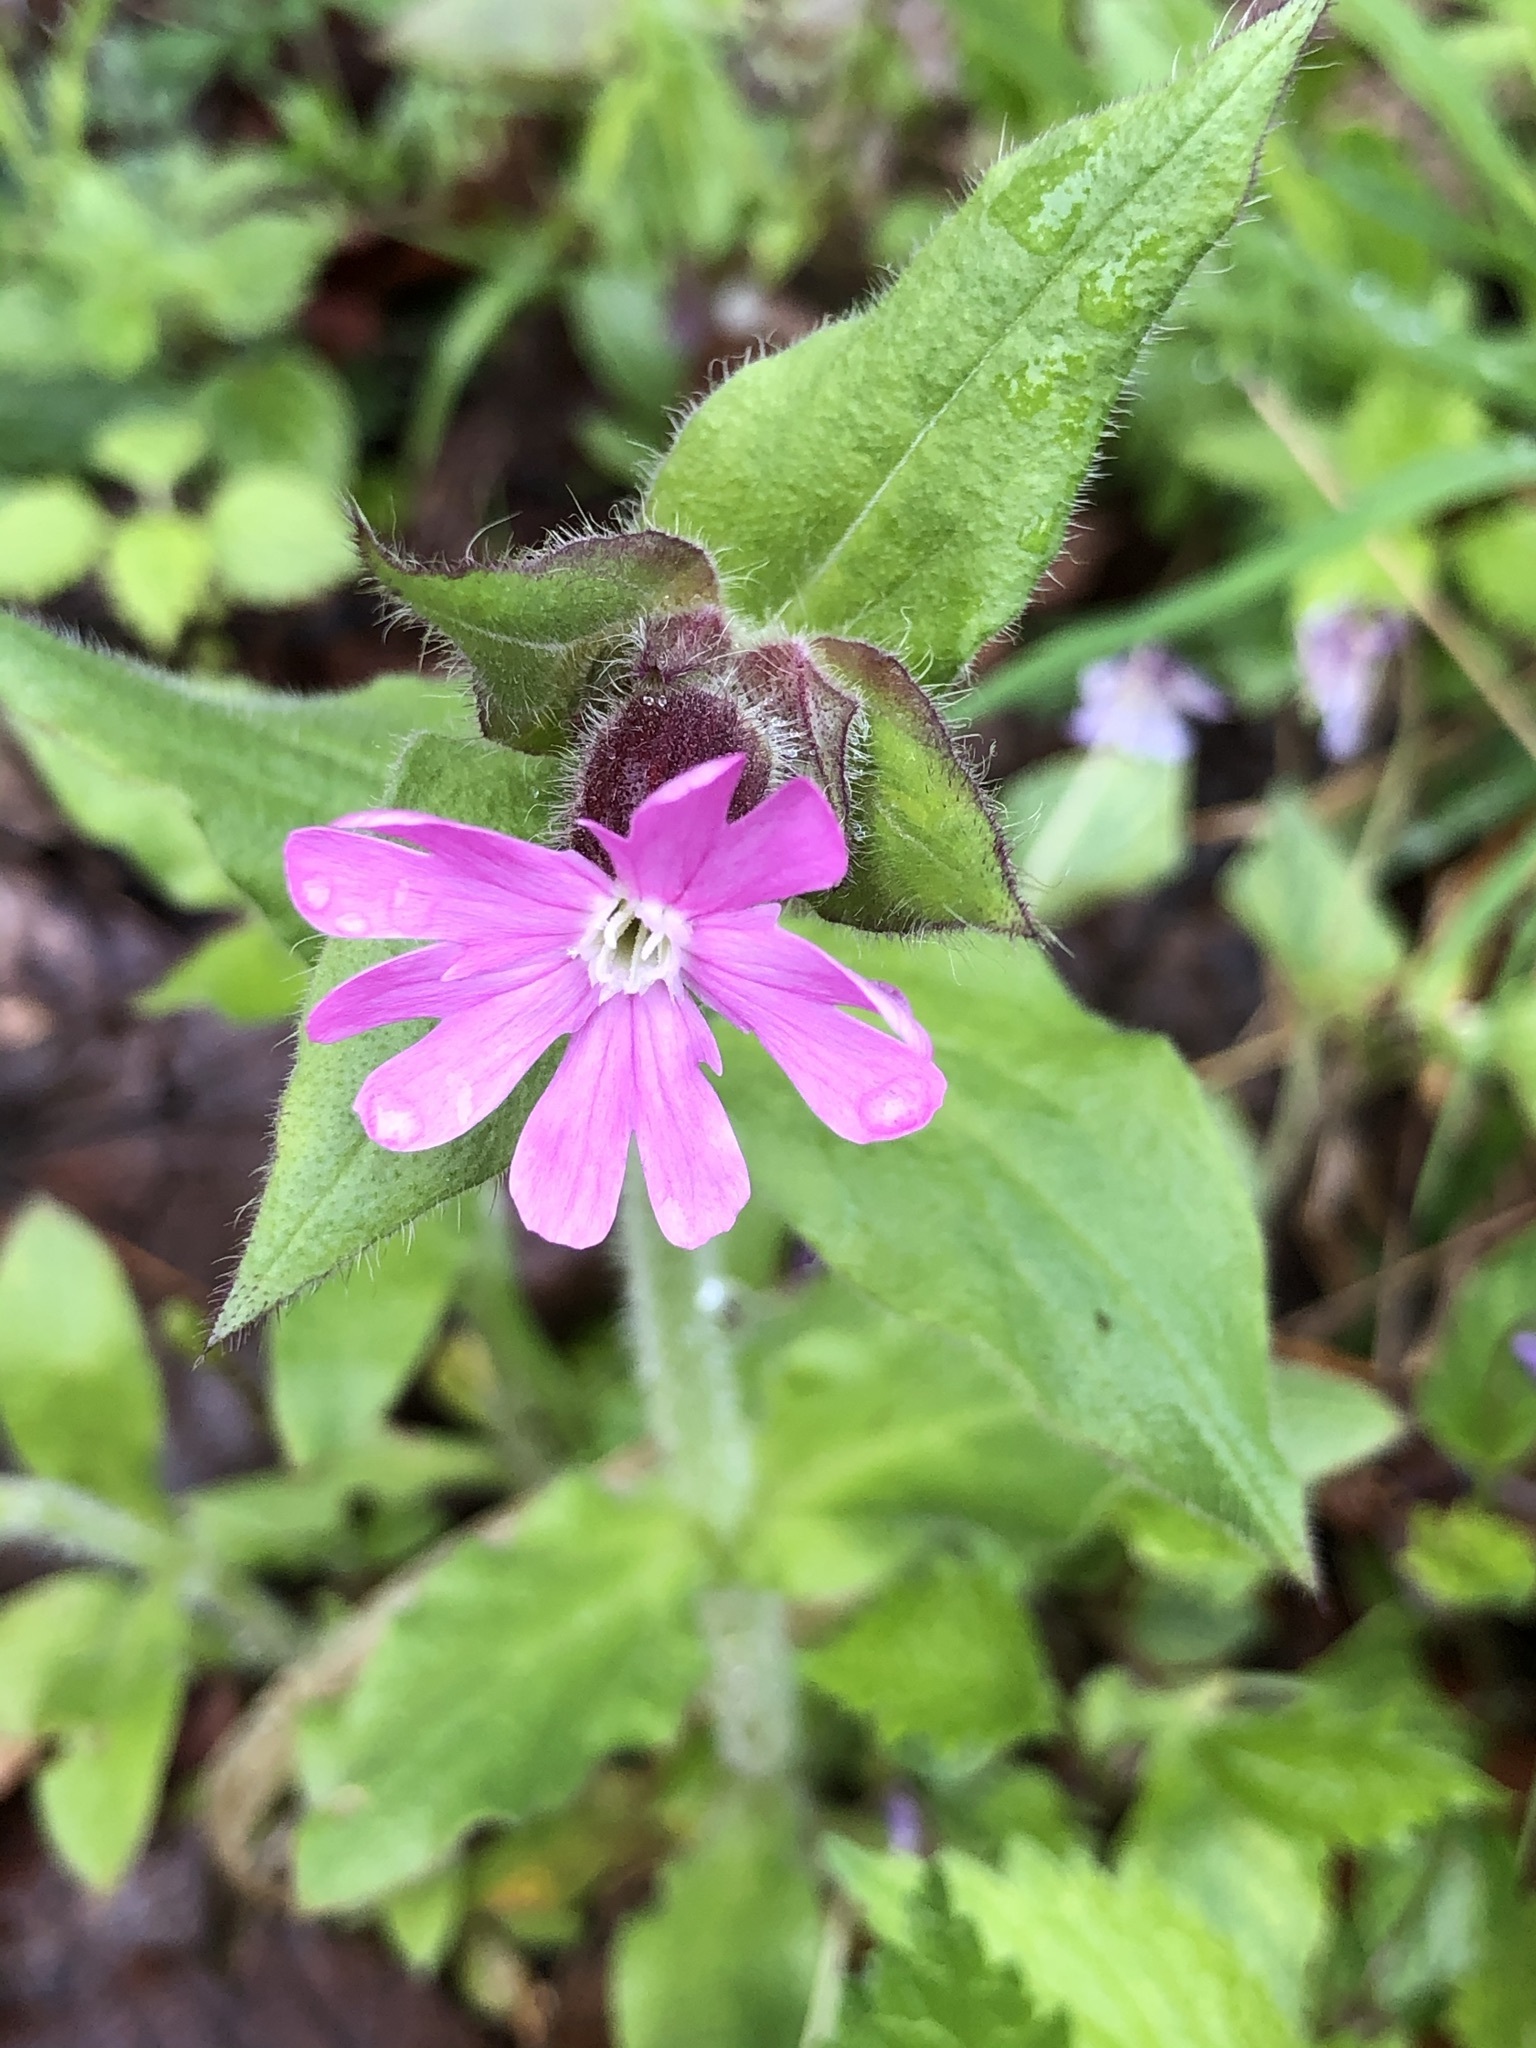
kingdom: Plantae
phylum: Tracheophyta
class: Magnoliopsida
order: Caryophyllales
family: Caryophyllaceae
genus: Silene
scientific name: Silene dioica
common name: Red campion
